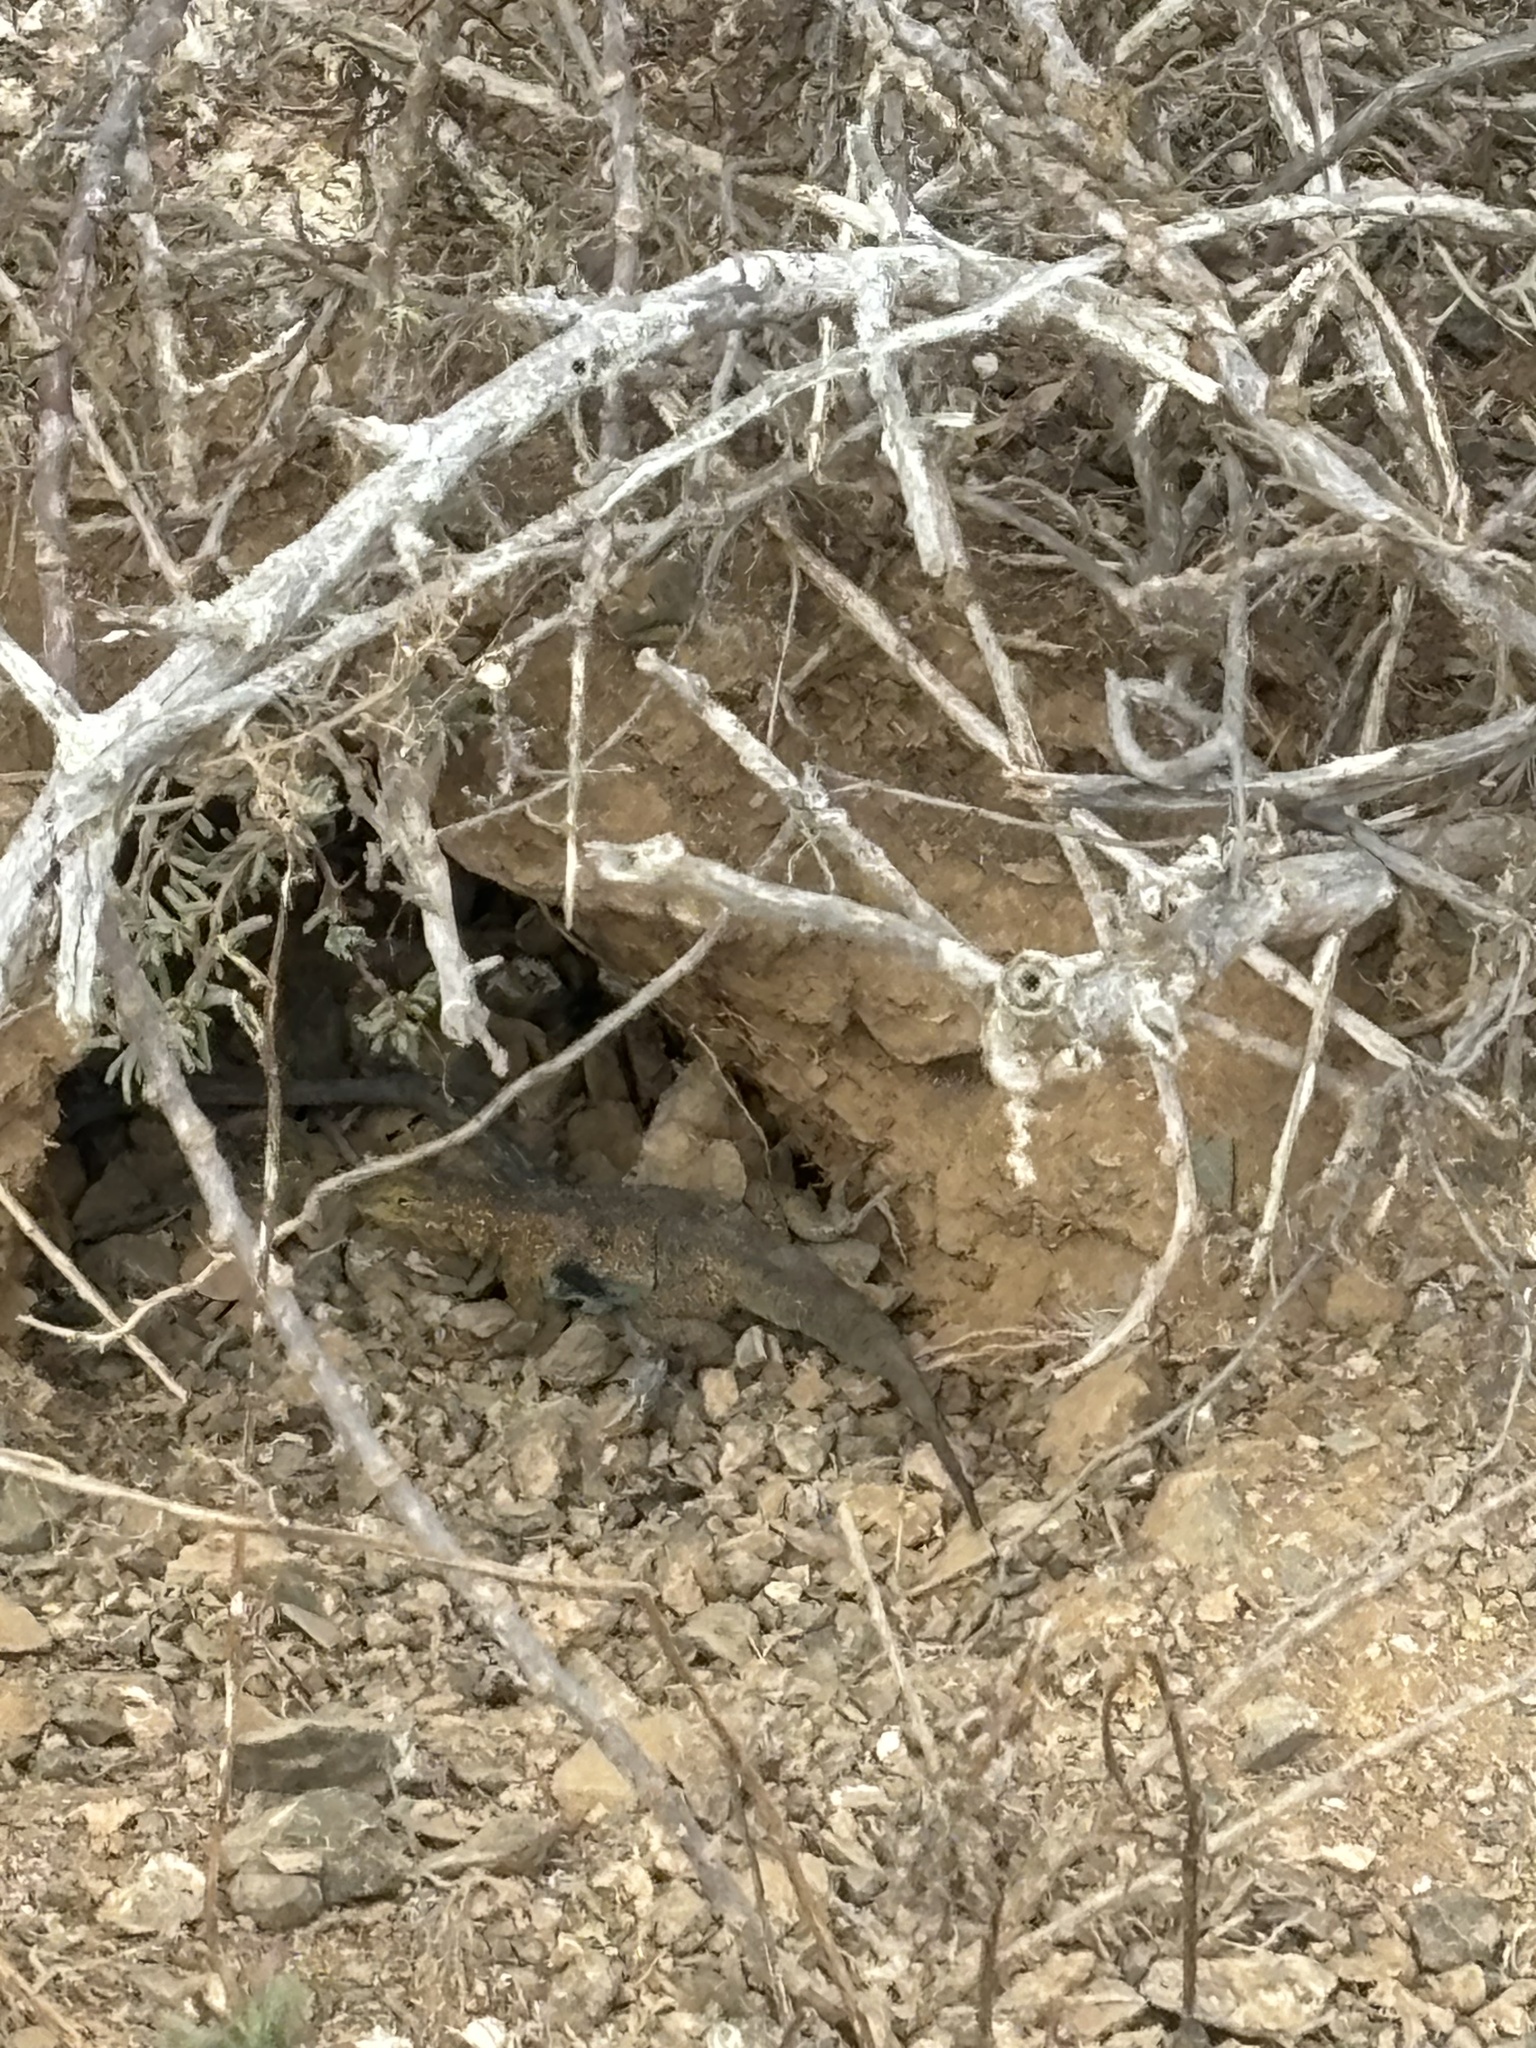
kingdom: Animalia
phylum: Chordata
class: Squamata
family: Phrynosomatidae
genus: Uta
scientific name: Uta stansburiana
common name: Side-blotched lizard
